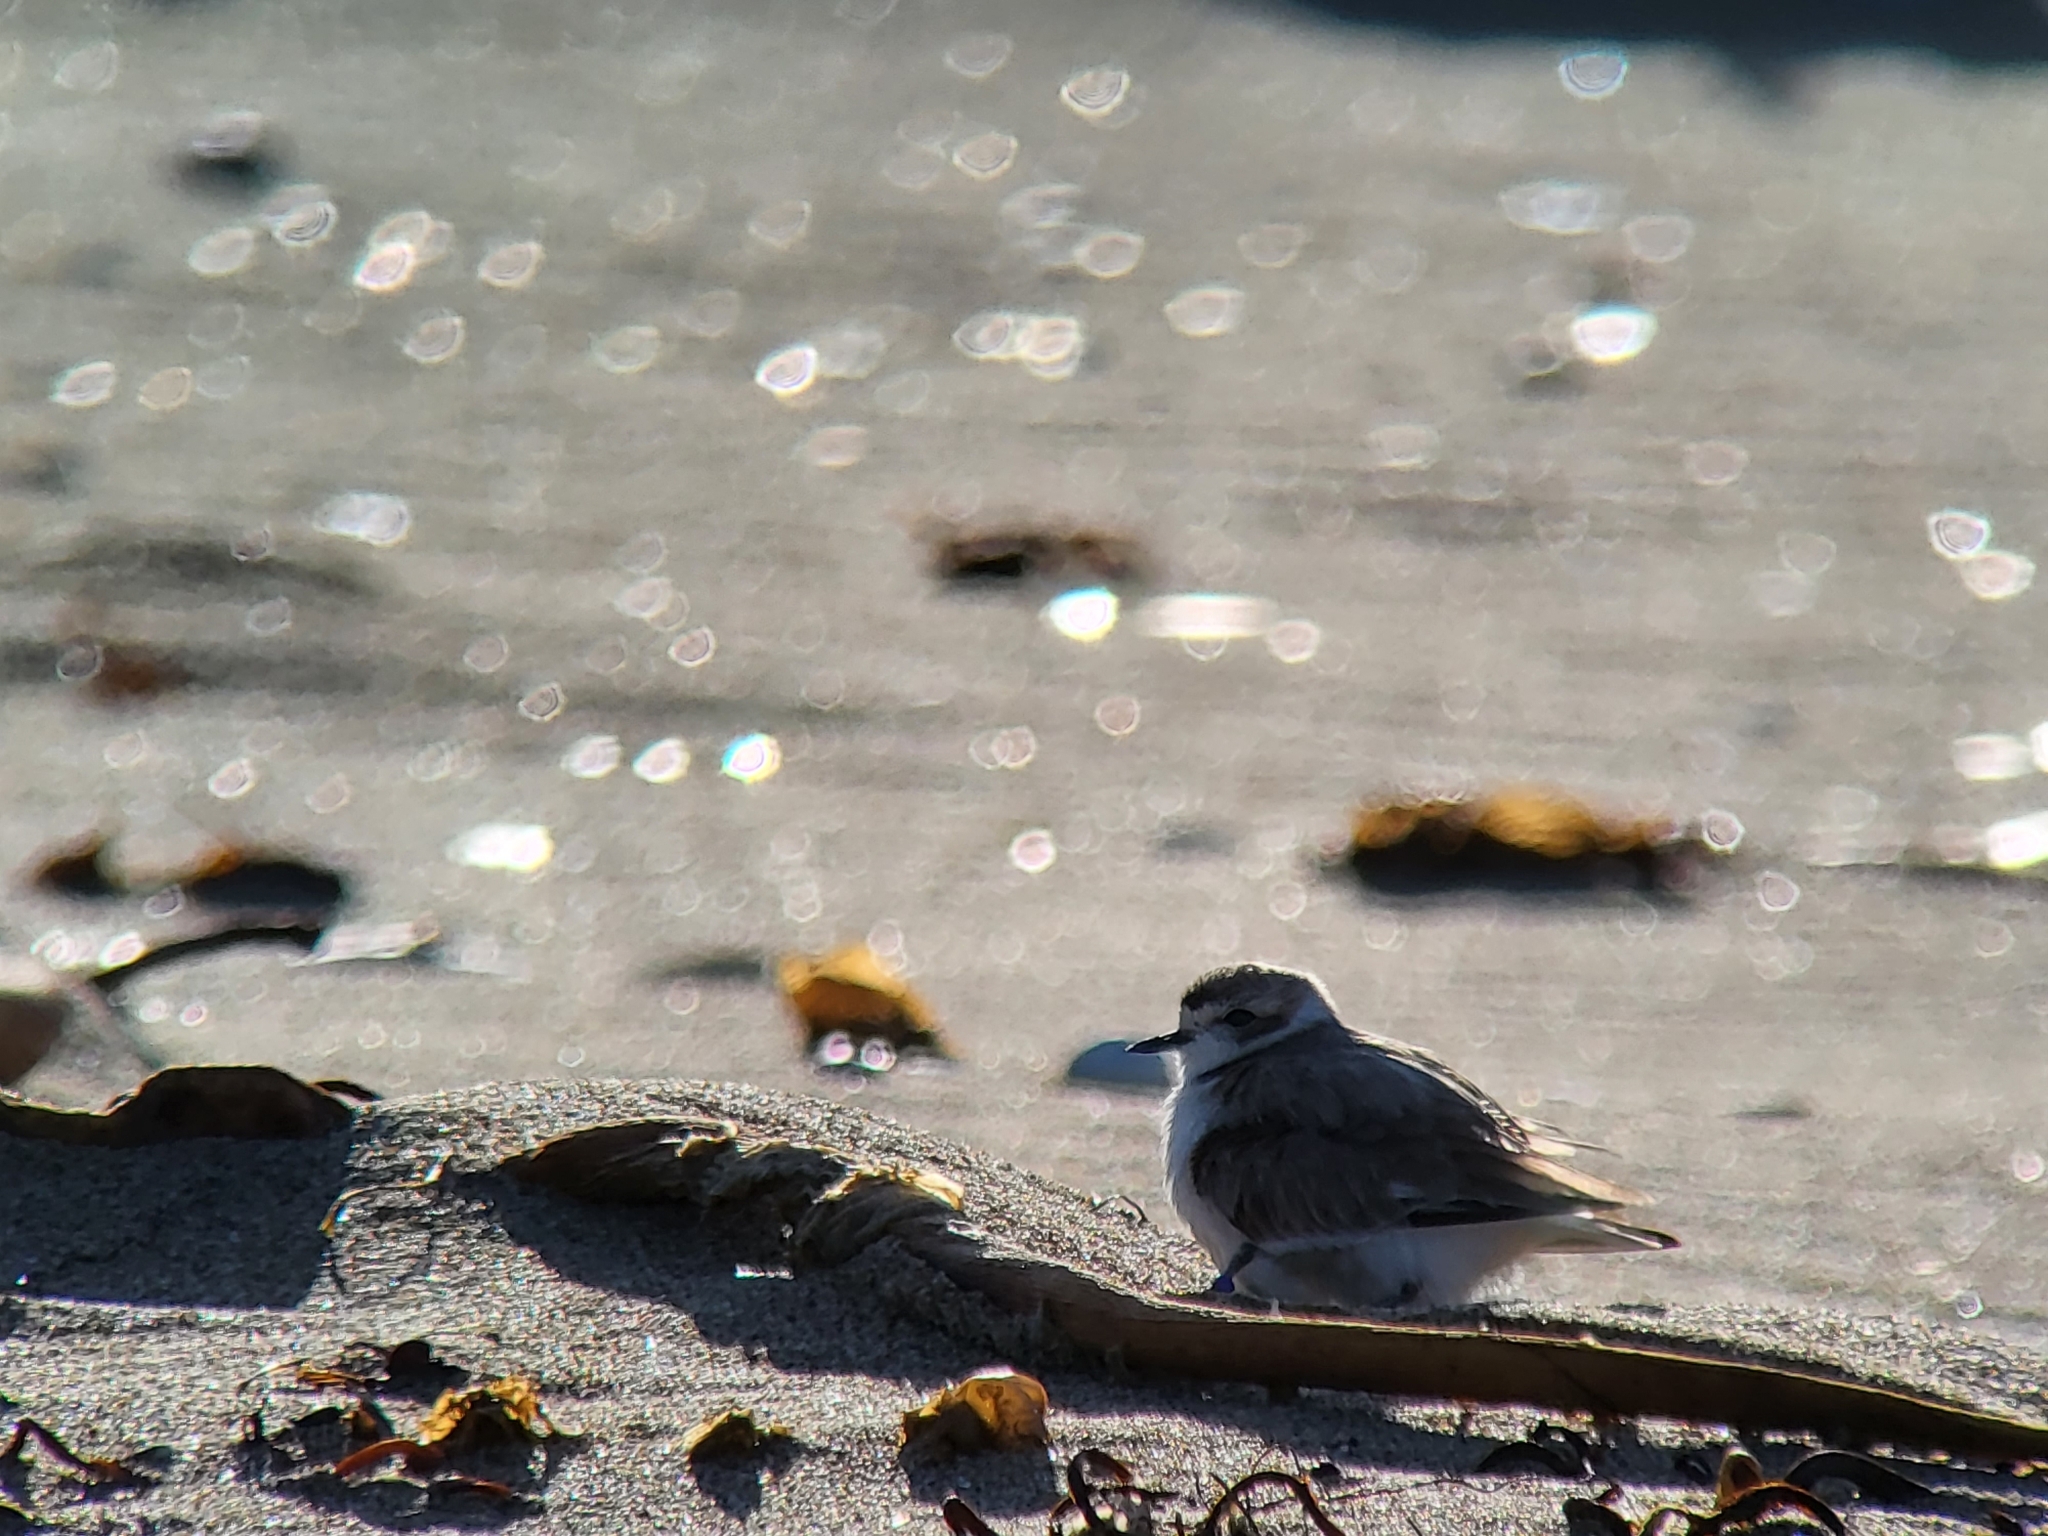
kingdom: Animalia
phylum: Chordata
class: Aves
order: Charadriiformes
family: Charadriidae
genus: Anarhynchus
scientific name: Anarhynchus
